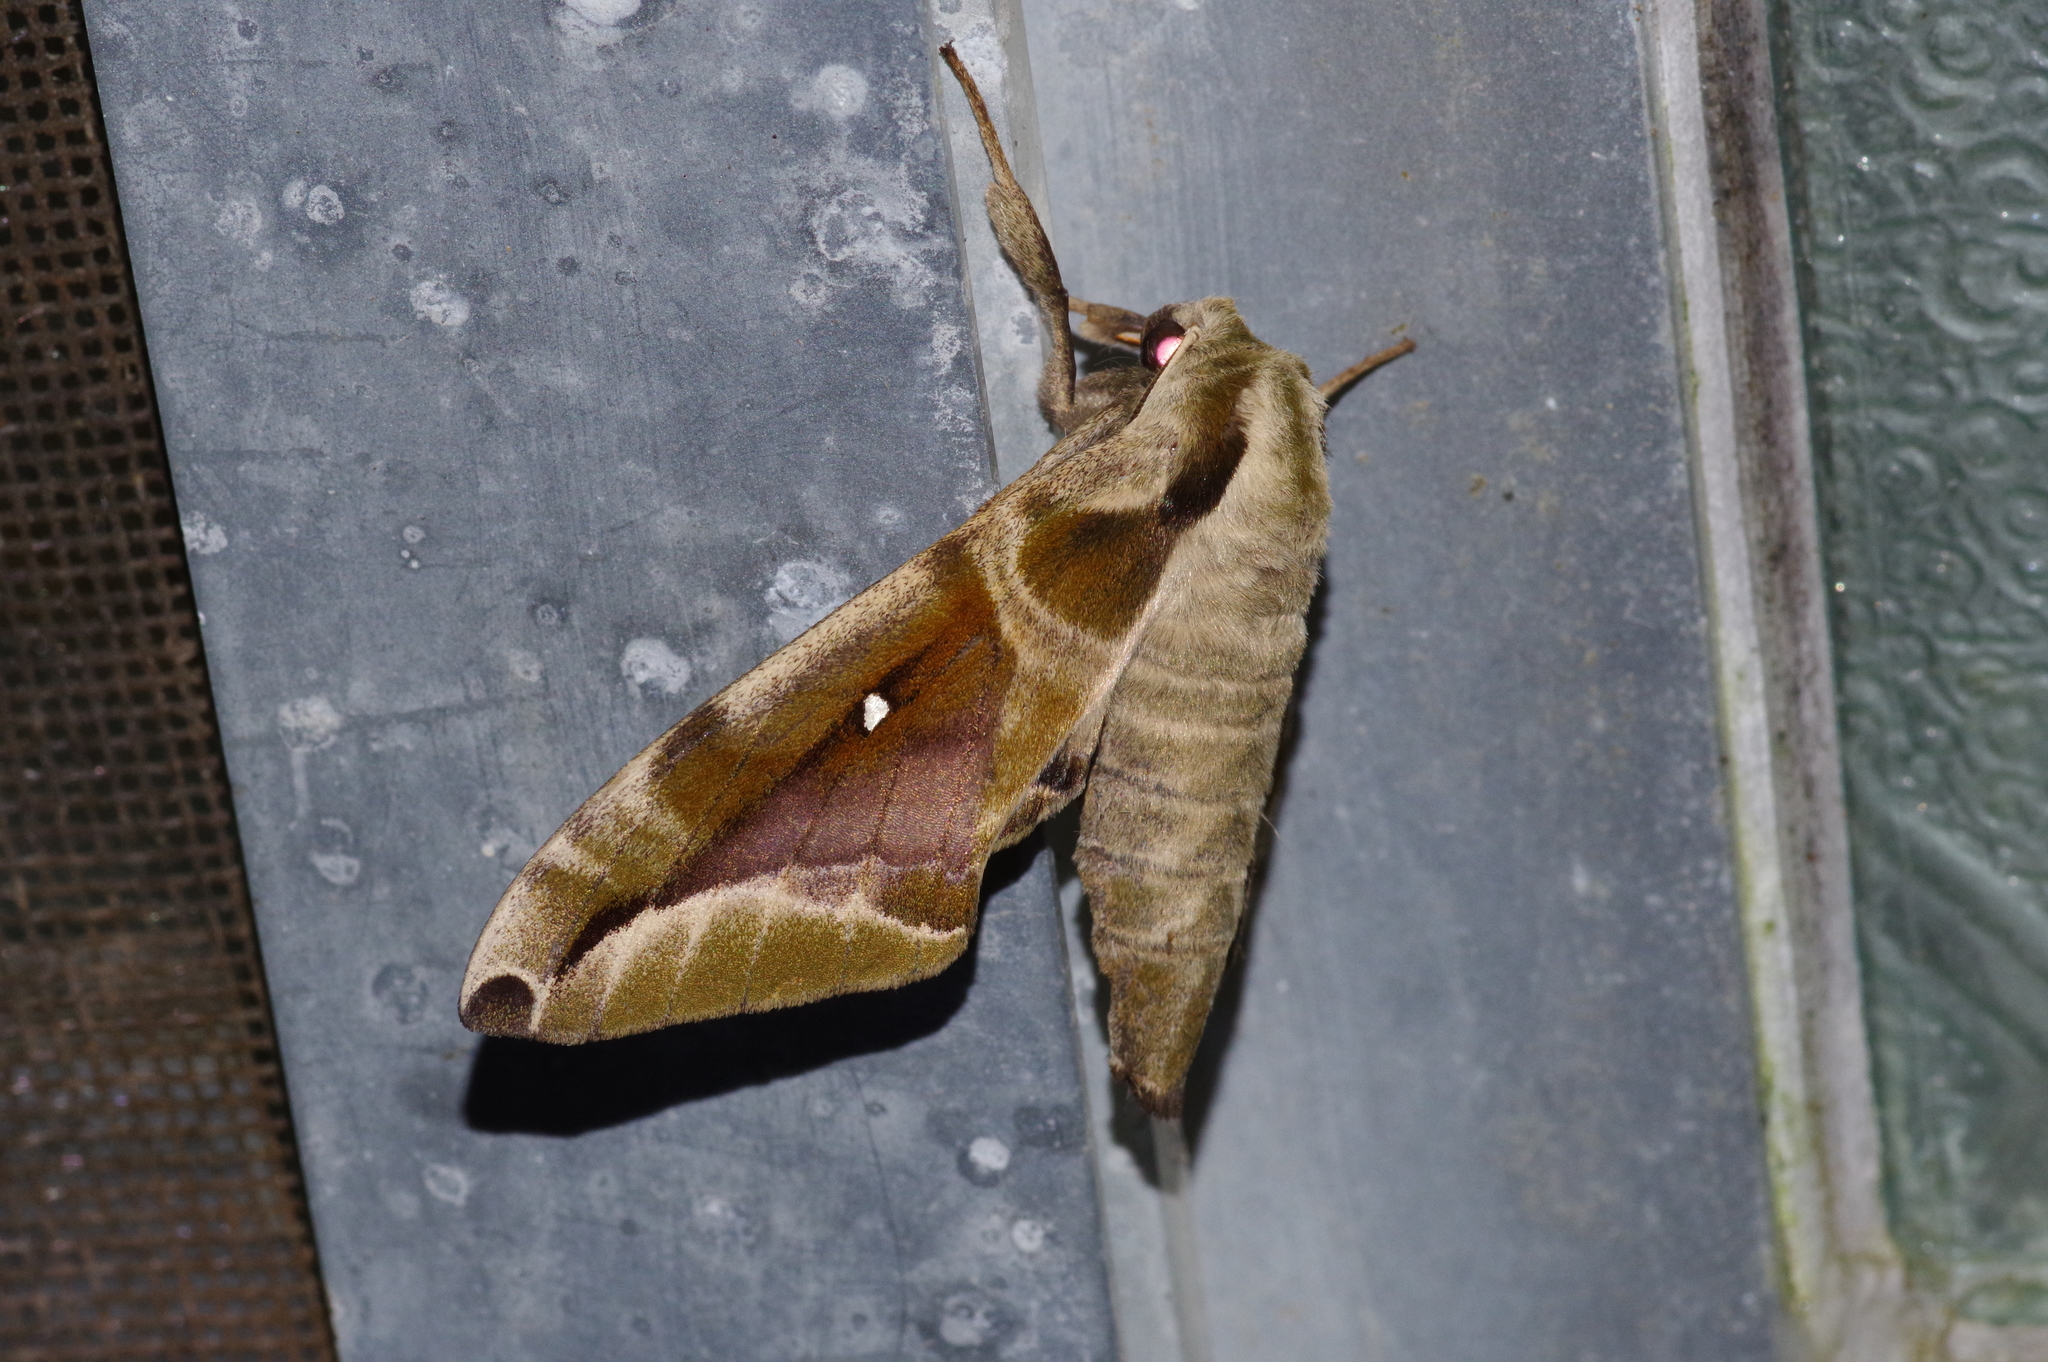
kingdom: Animalia
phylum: Arthropoda
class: Insecta
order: Lepidoptera
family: Sphingidae
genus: Parum
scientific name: Parum colligata
